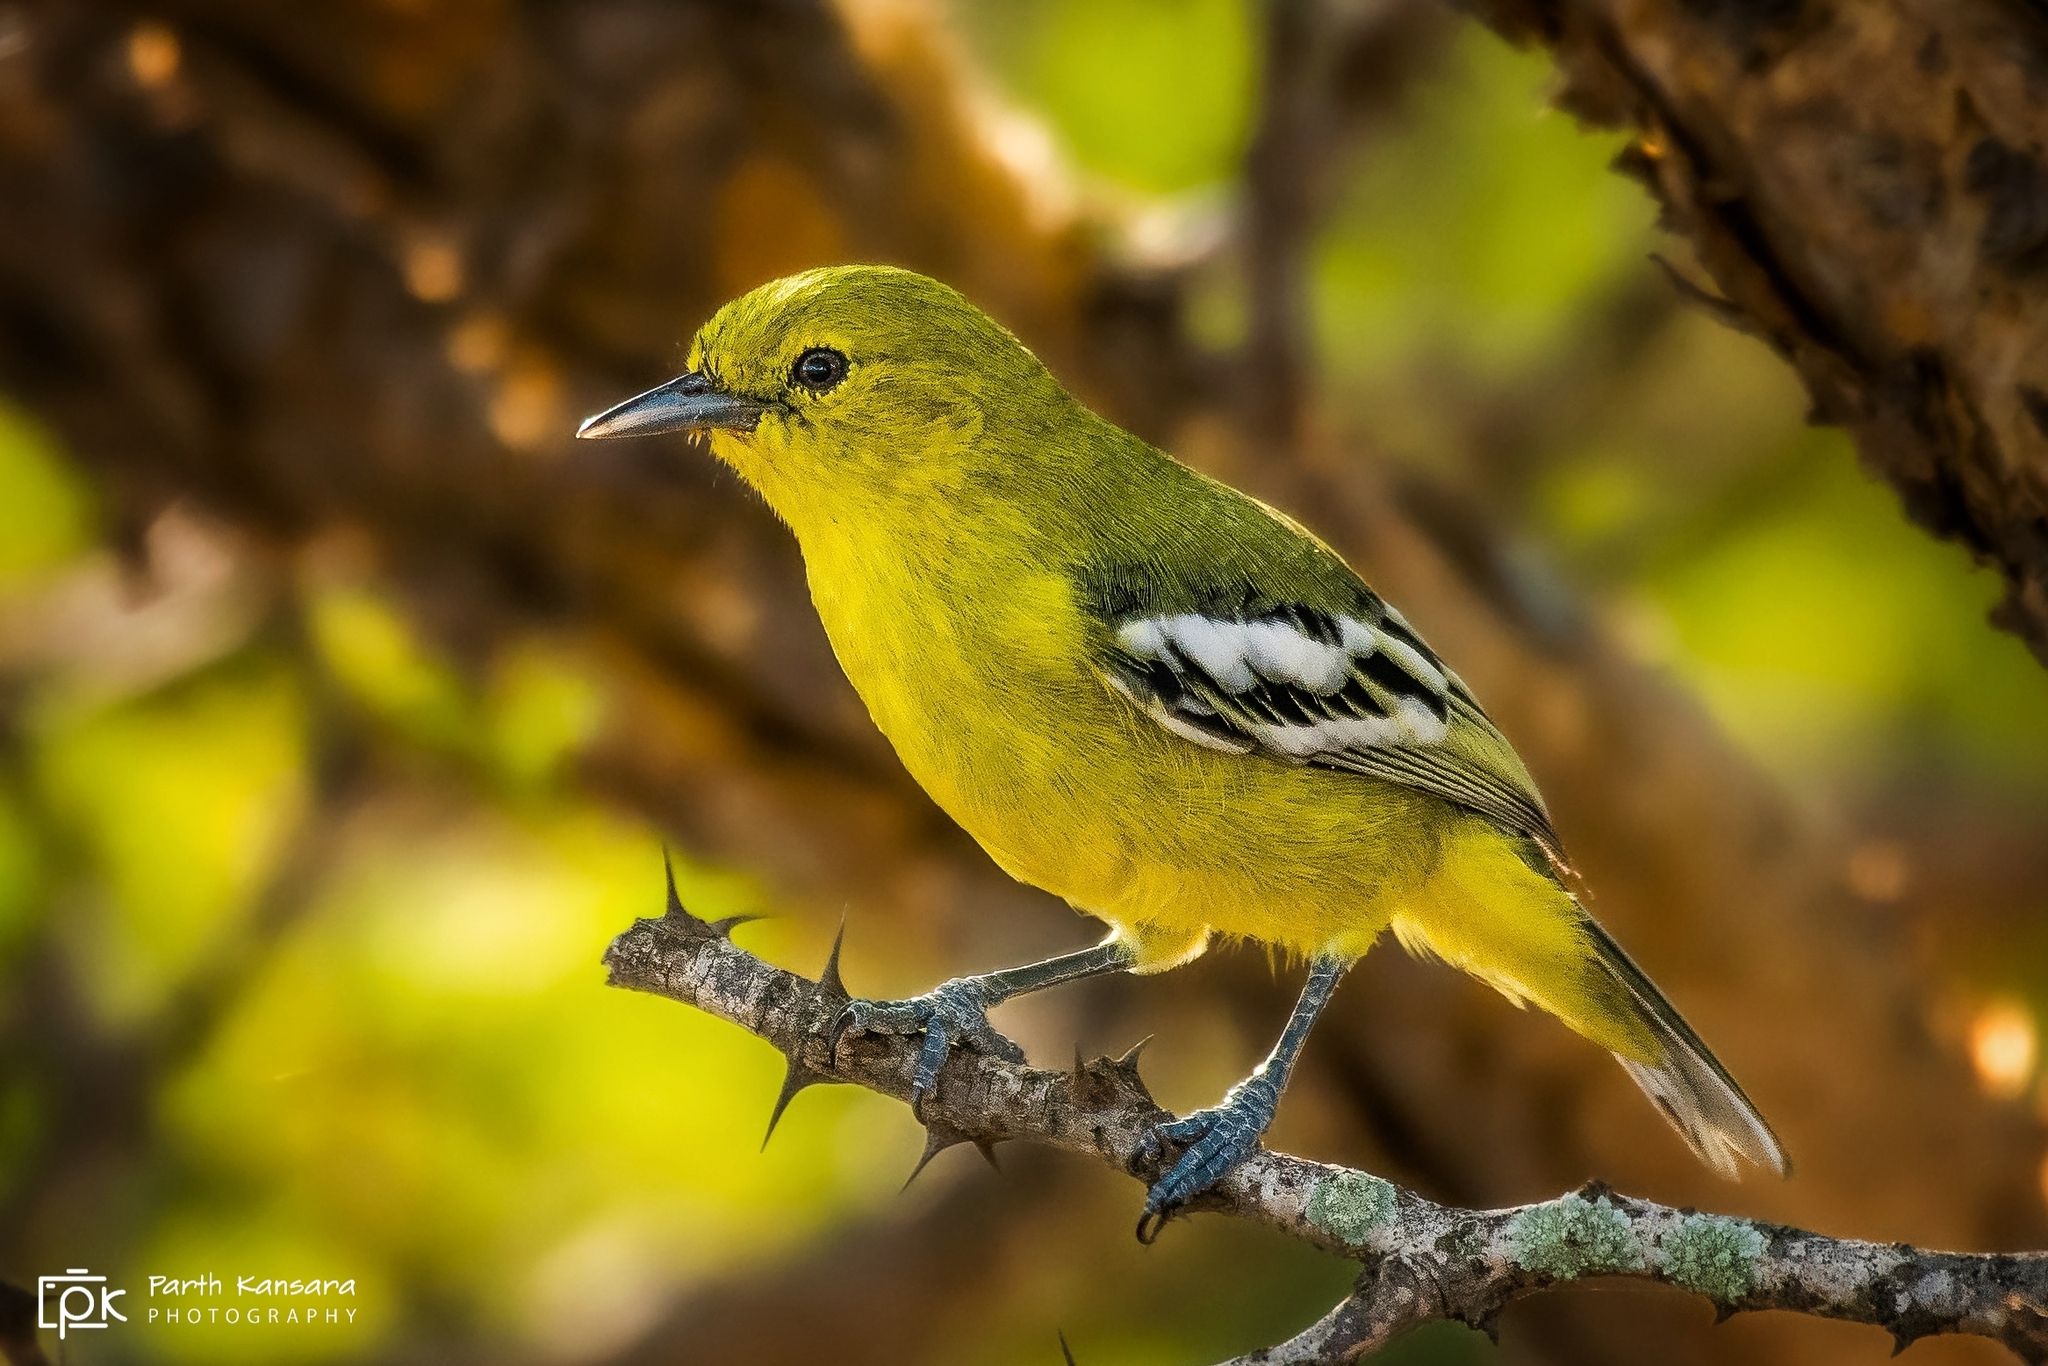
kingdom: Animalia
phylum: Chordata
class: Aves
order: Passeriformes
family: Aegithinidae
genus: Aegithina
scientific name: Aegithina nigrolutea
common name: Marshall's iora
